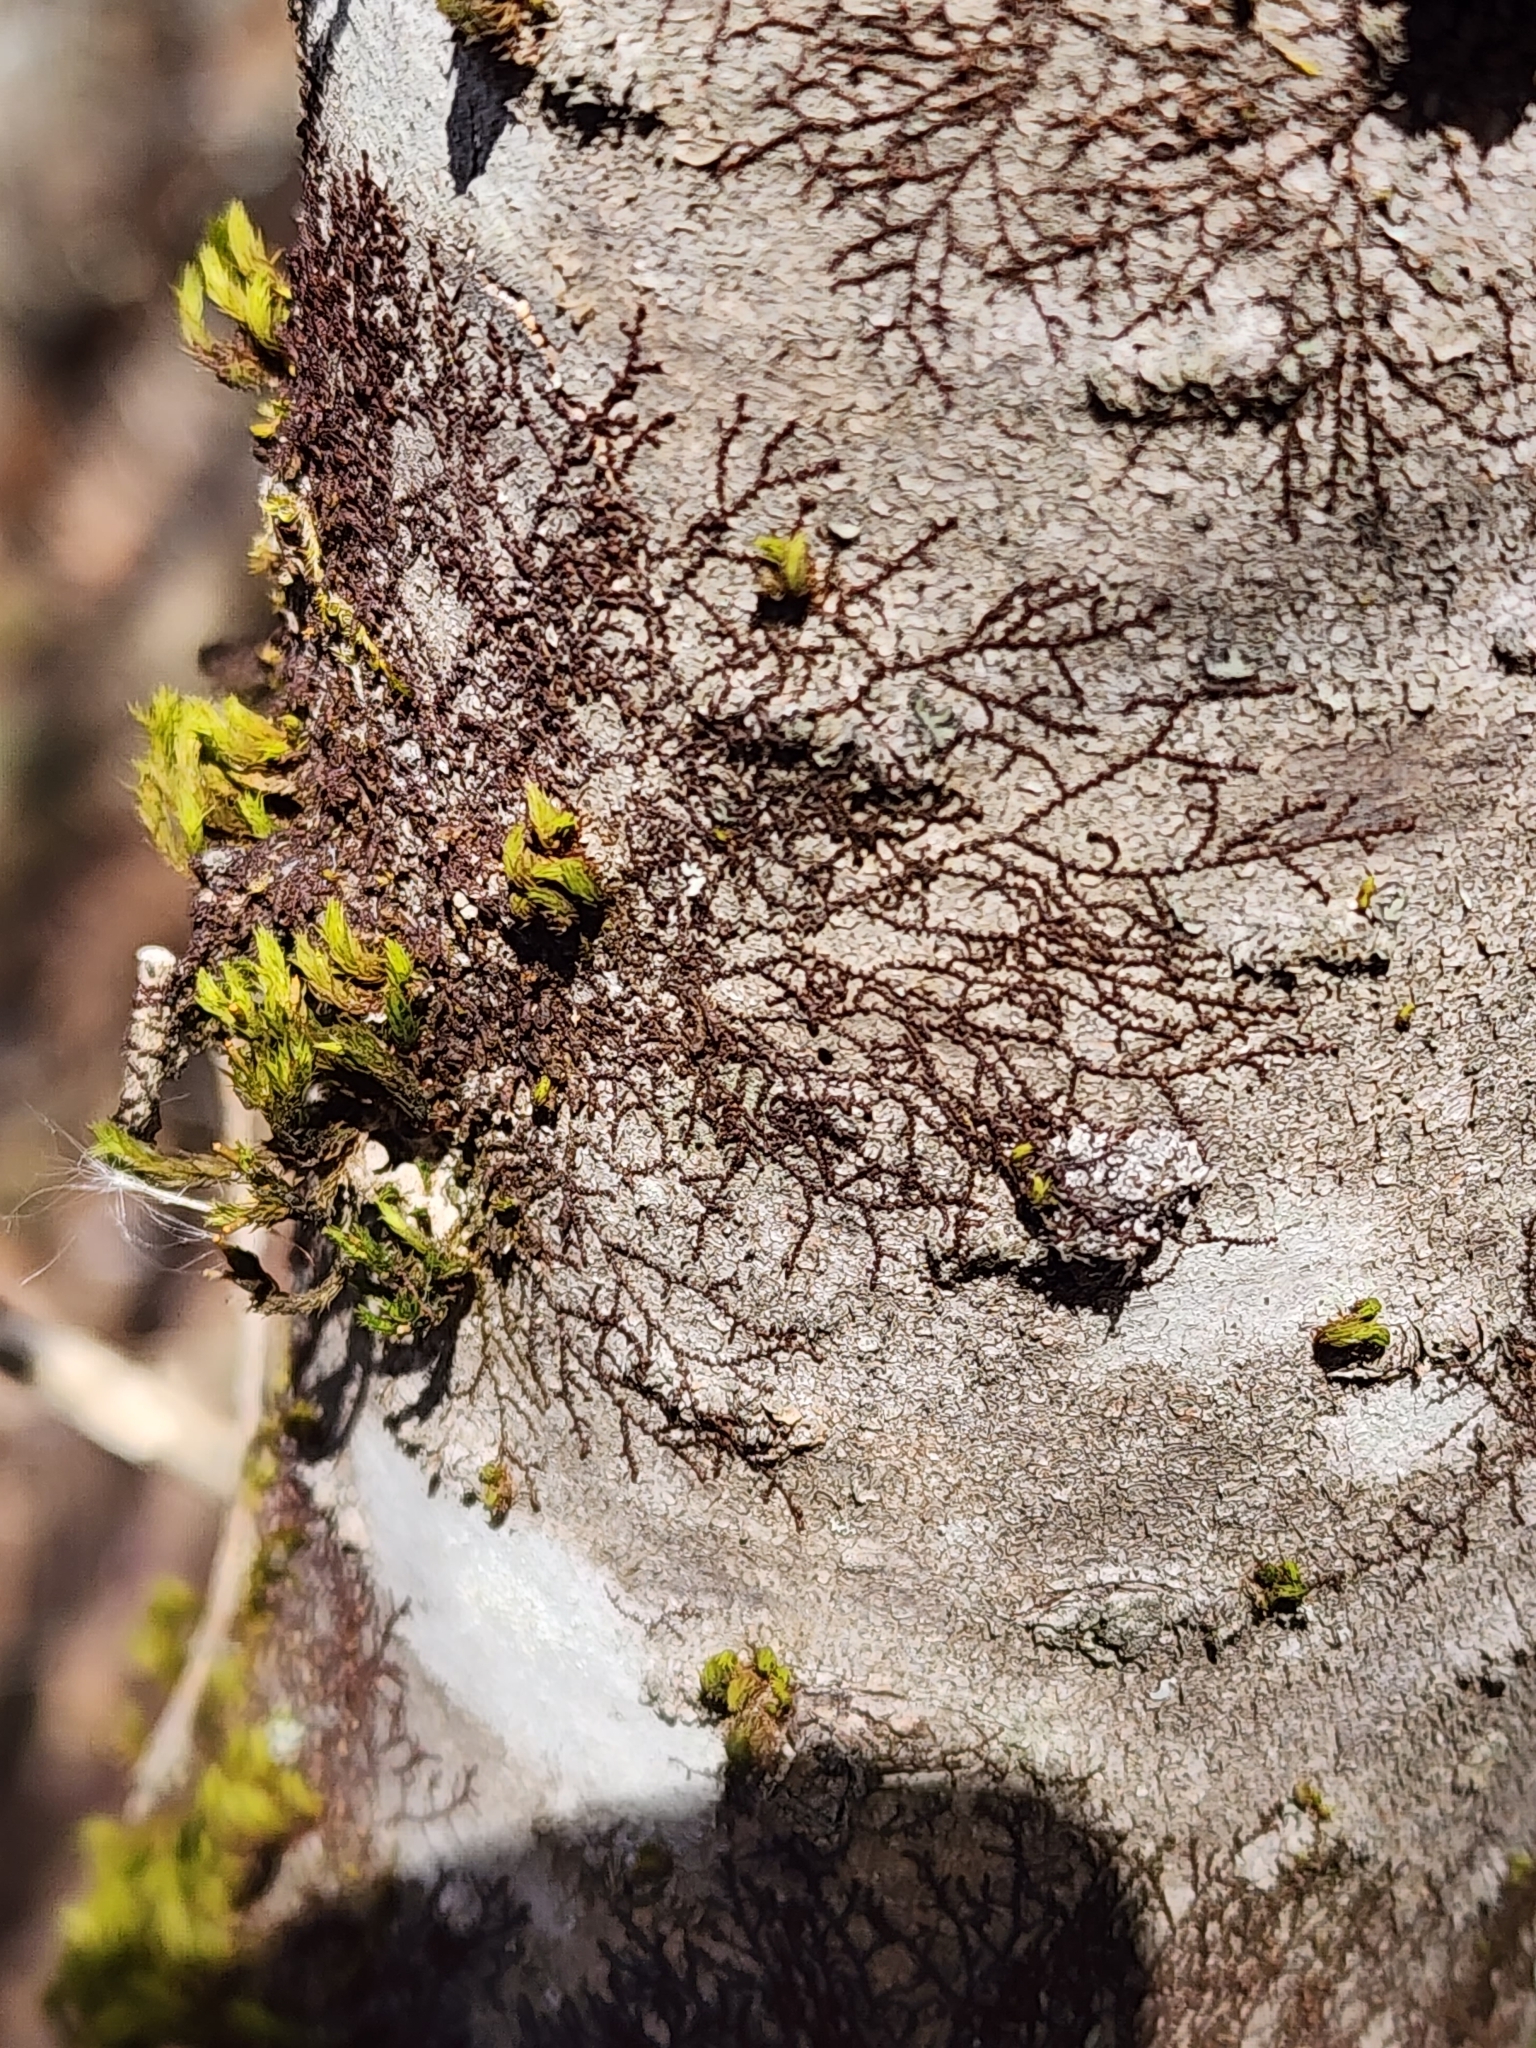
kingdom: Plantae
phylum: Marchantiophyta
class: Jungermanniopsida
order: Porellales
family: Frullaniaceae
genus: Frullania
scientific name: Frullania eboracensis
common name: New york scalewort
